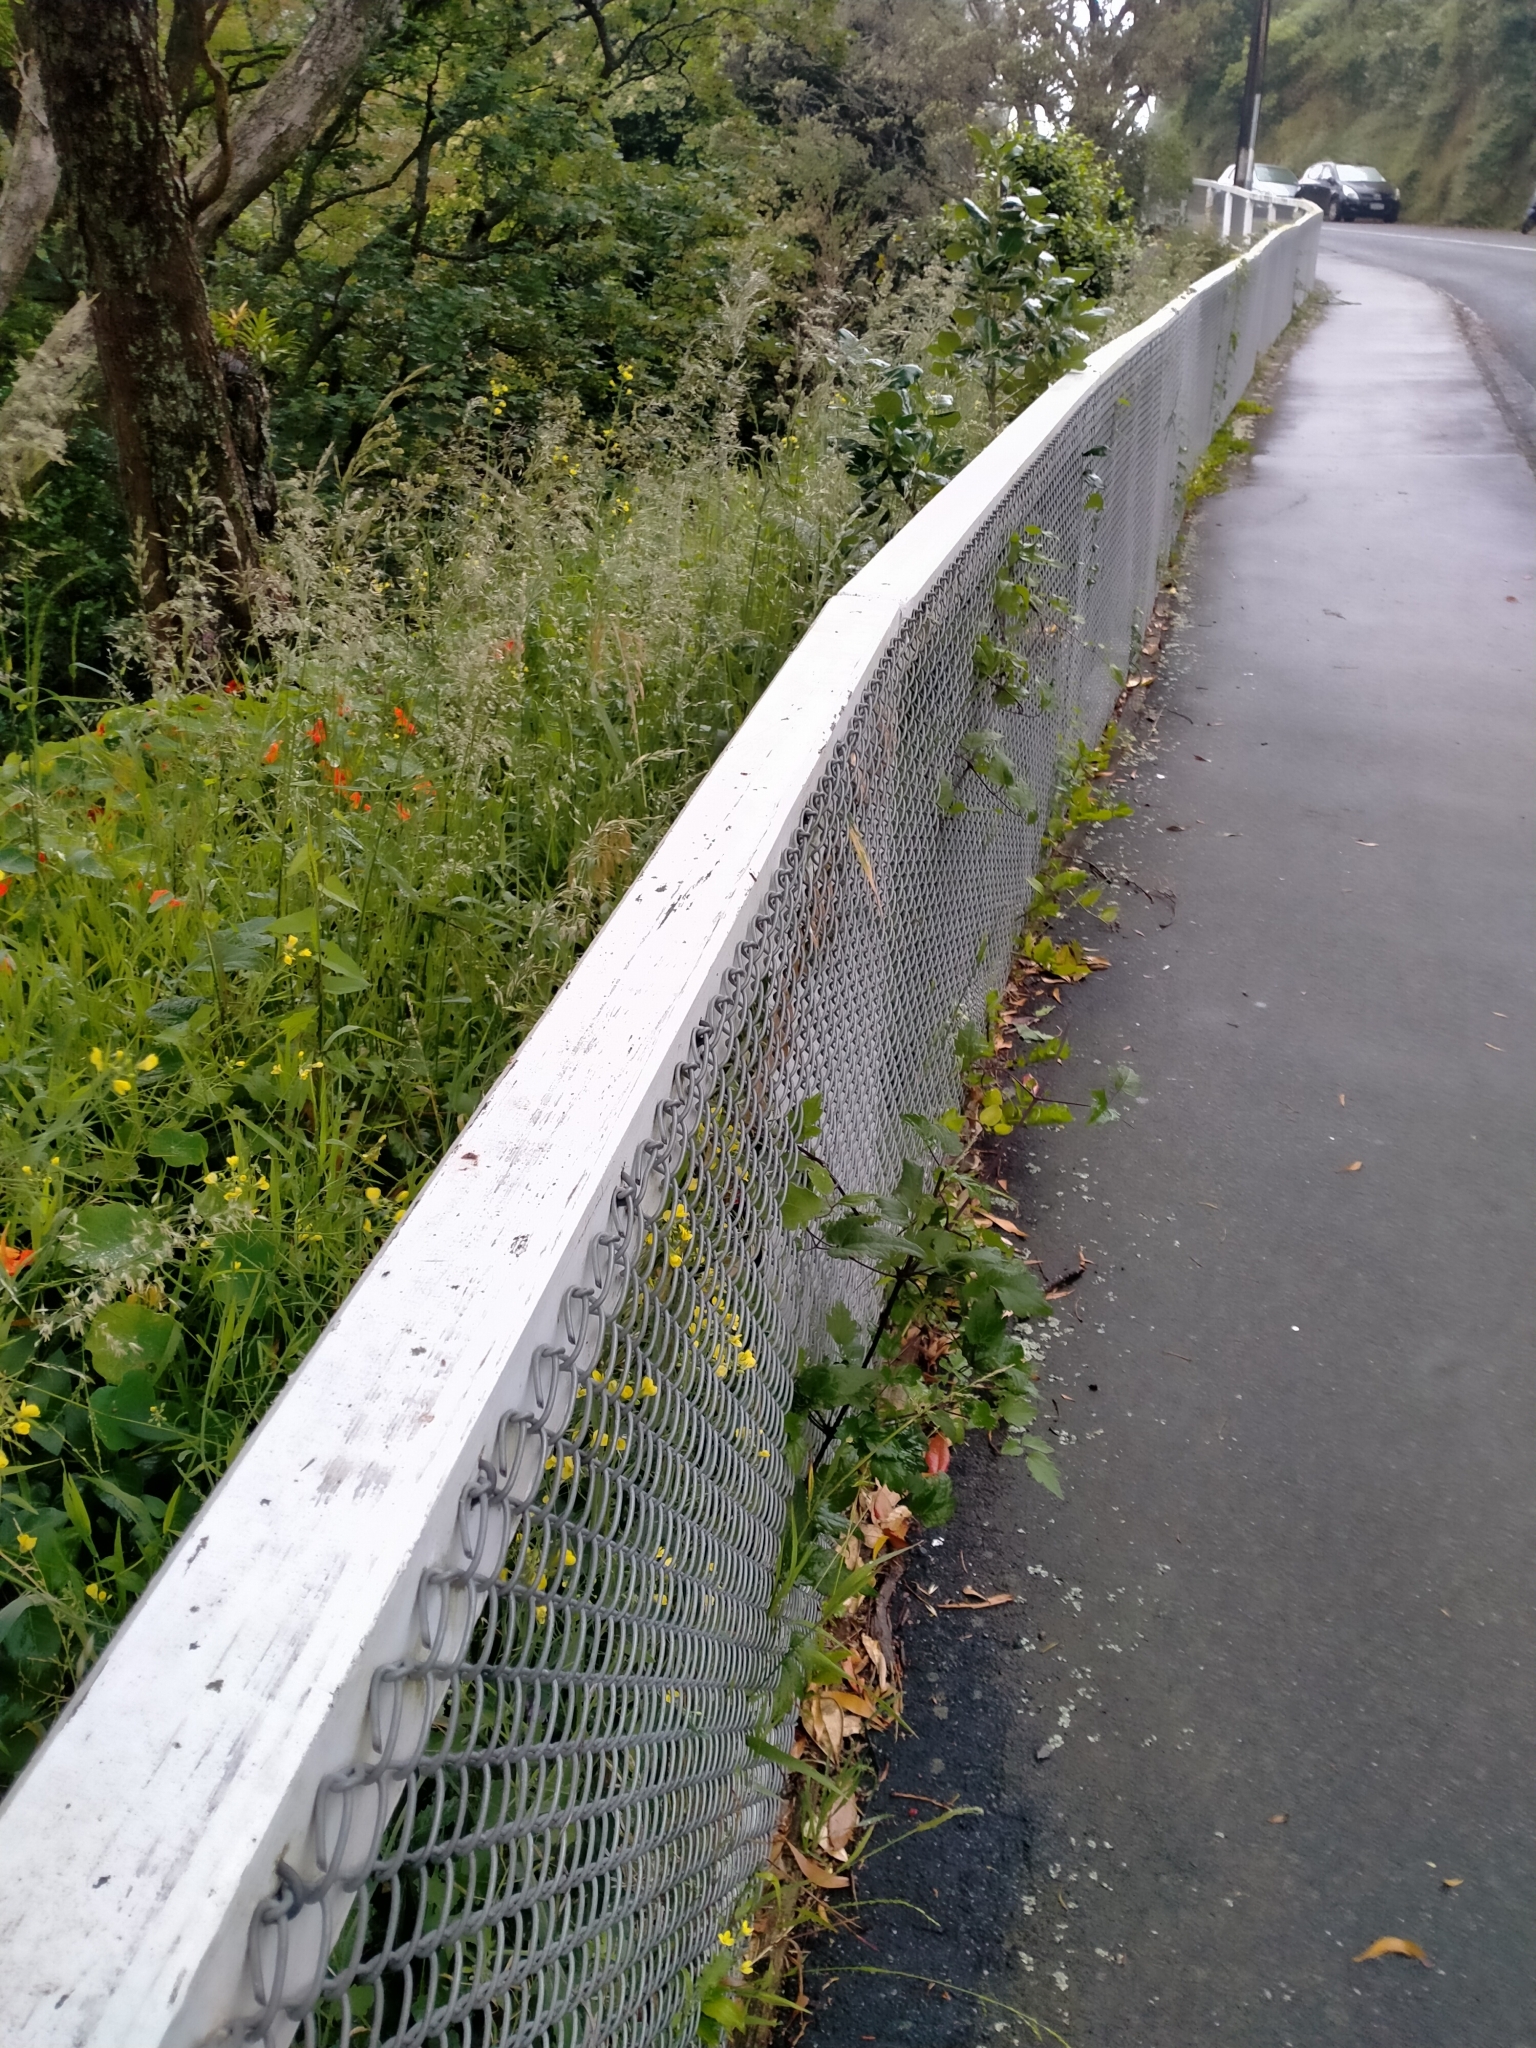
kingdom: Plantae
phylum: Tracheophyta
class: Magnoliopsida
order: Ranunculales
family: Ranunculaceae
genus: Clematis
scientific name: Clematis vitalba
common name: Evergreen clematis
